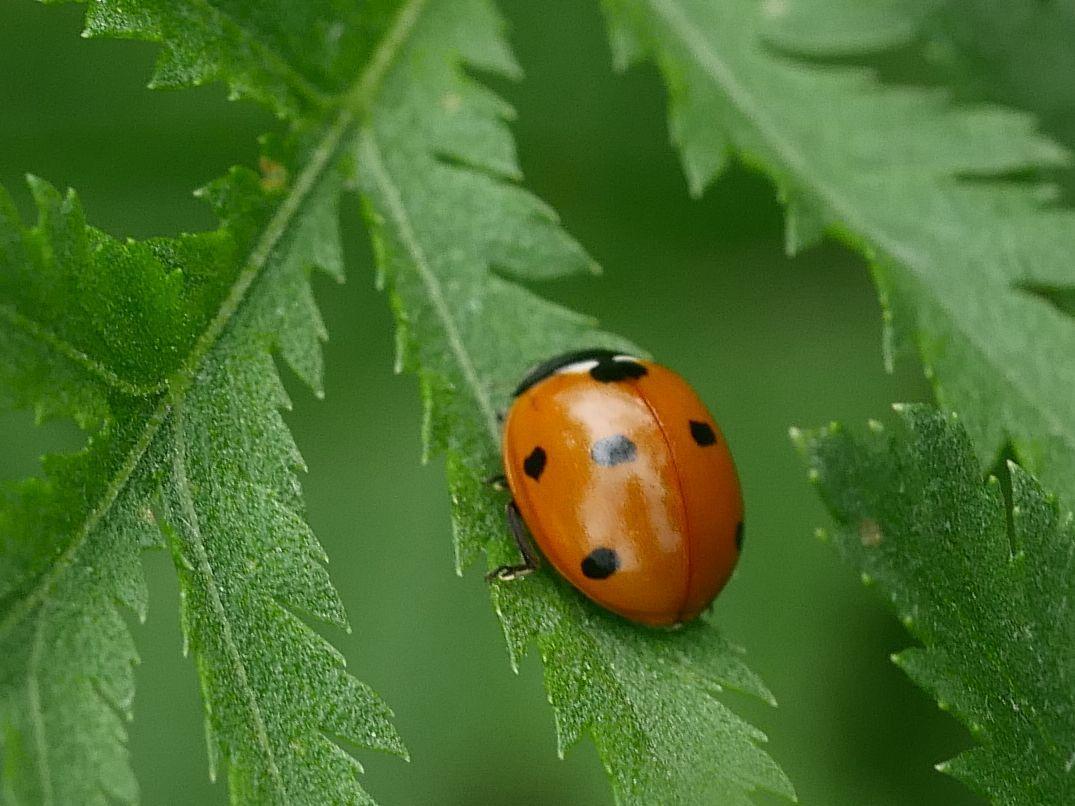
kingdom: Animalia
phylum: Arthropoda
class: Insecta
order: Coleoptera
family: Coccinellidae
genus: Coccinella
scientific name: Coccinella septempunctata
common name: Sevenspotted lady beetle
